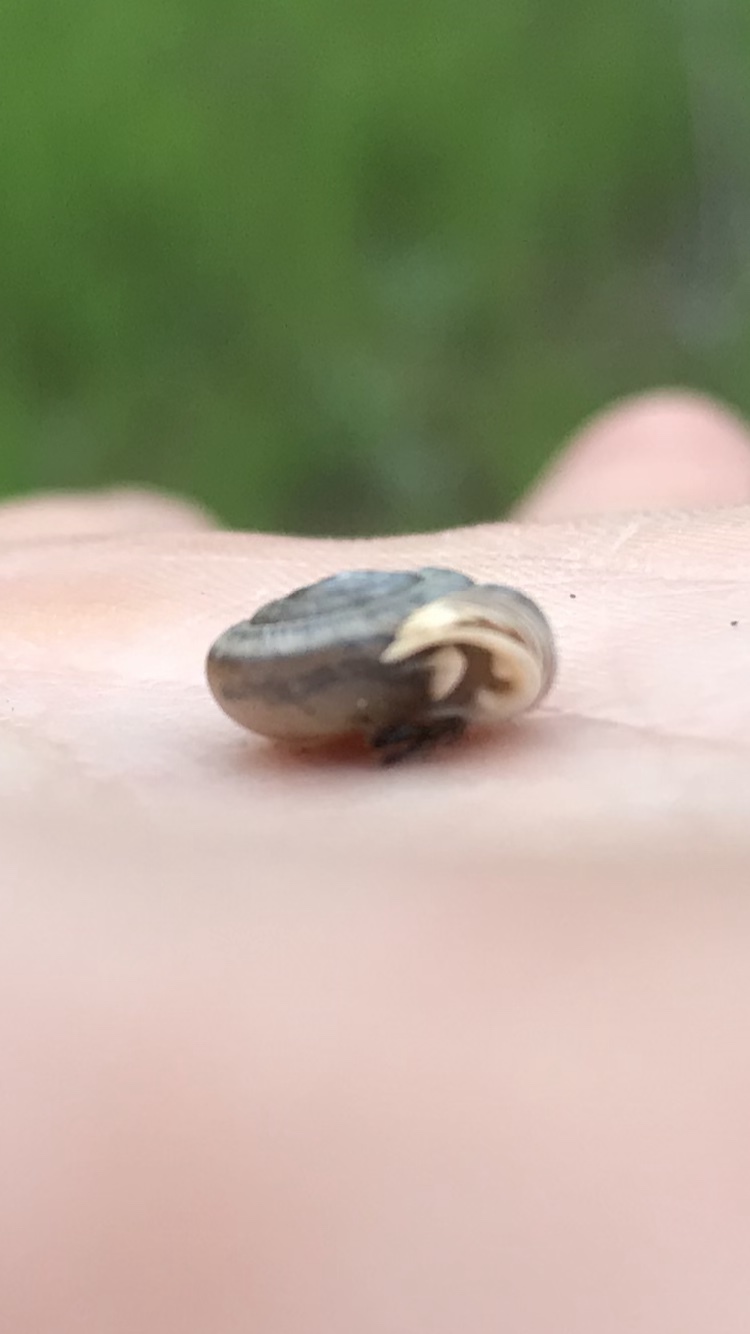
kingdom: Animalia
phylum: Mollusca
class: Gastropoda
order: Stylommatophora
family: Polygyridae
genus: Linisa
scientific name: Linisa texasiana
